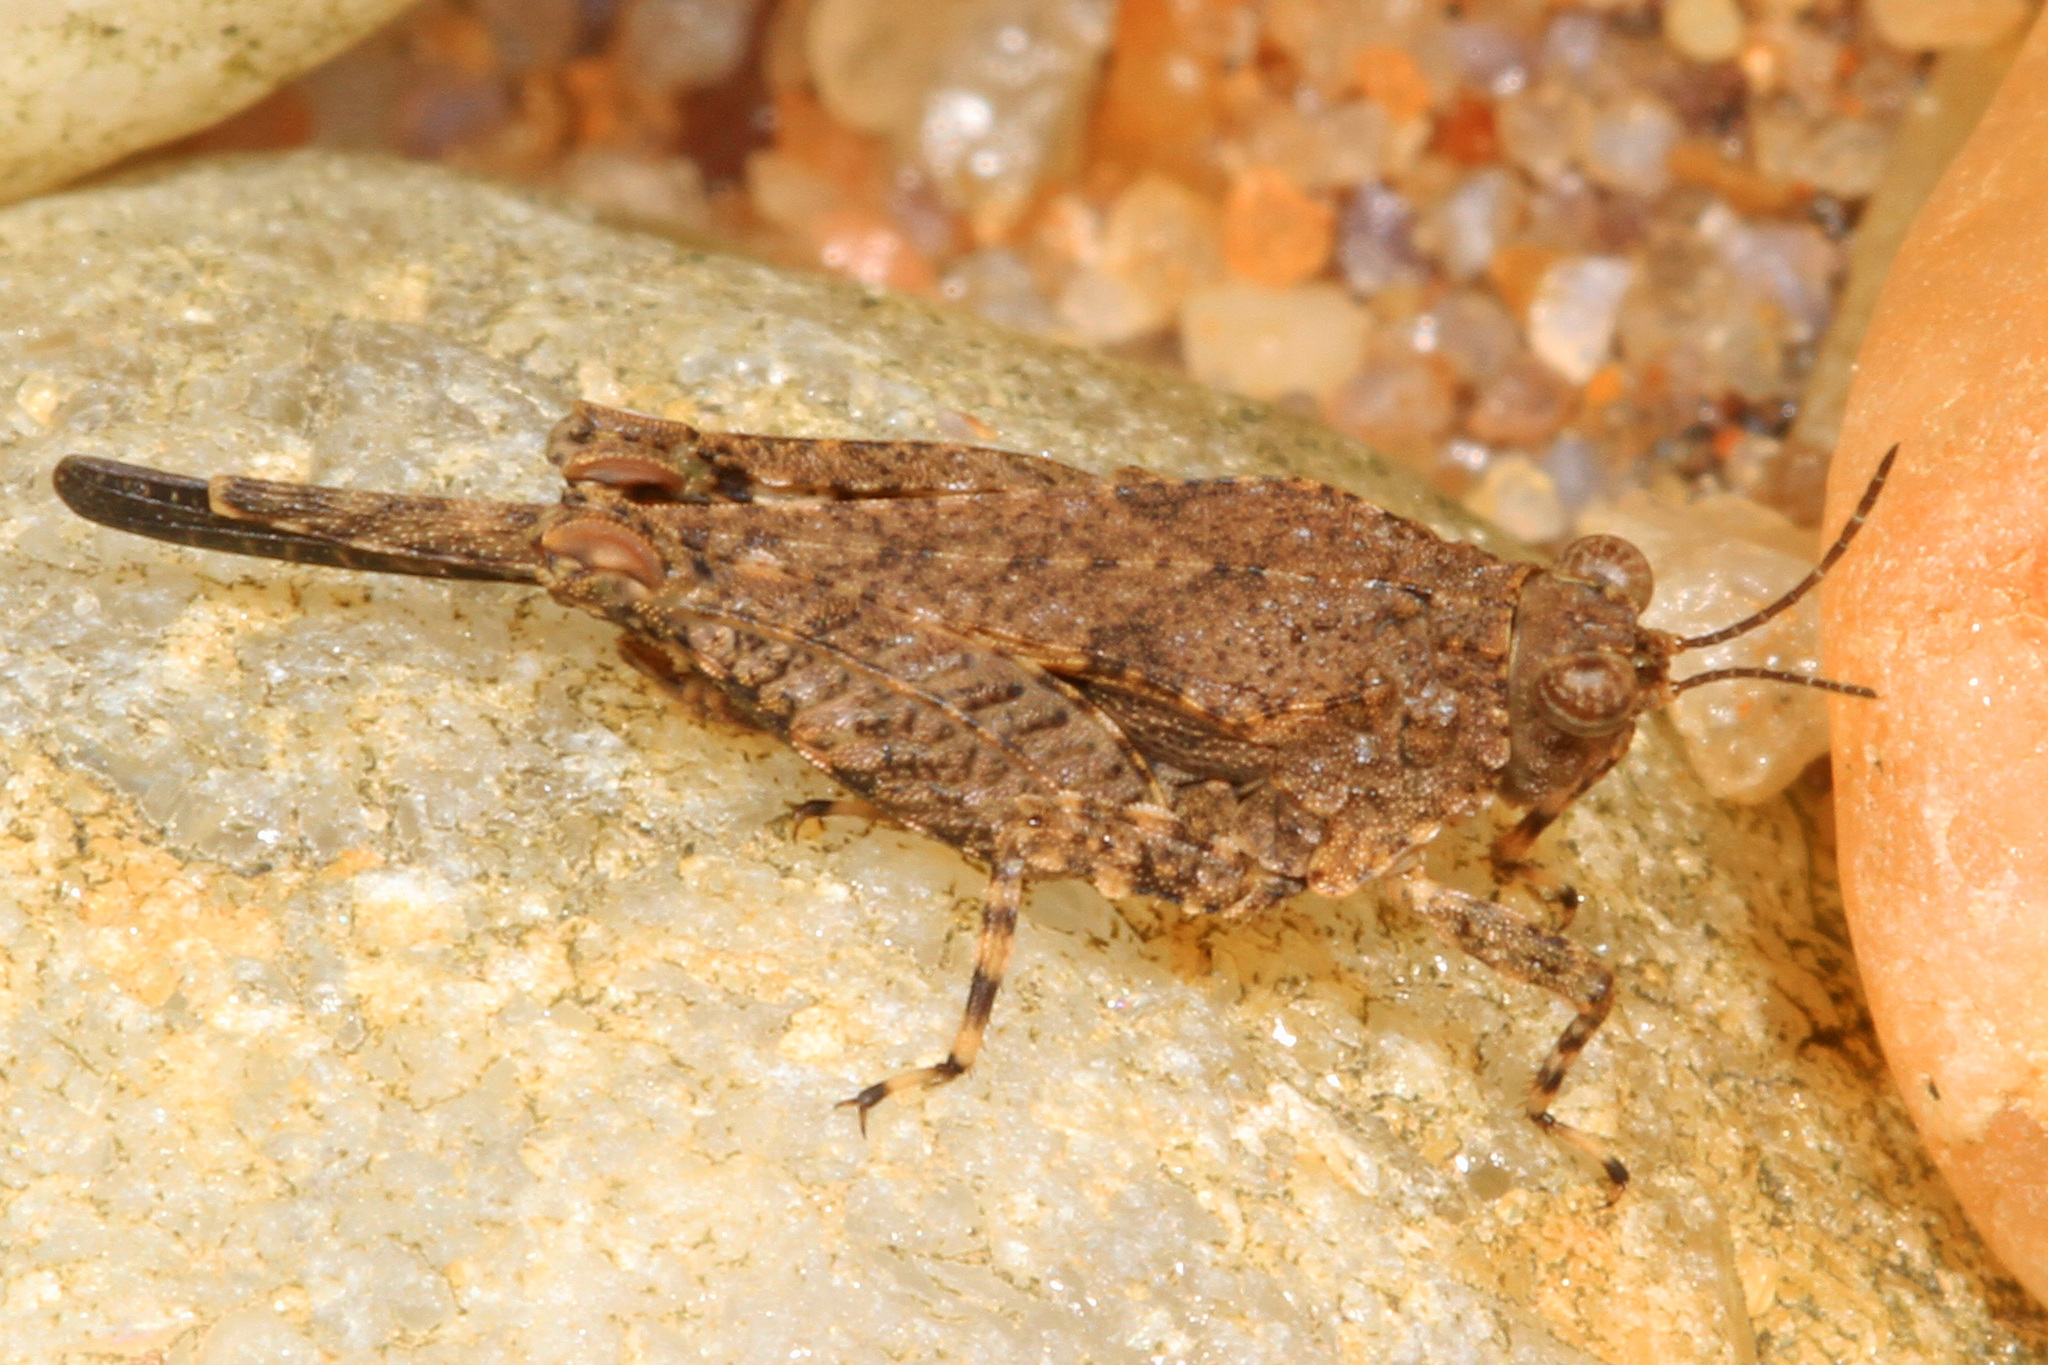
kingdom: Animalia
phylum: Arthropoda
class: Insecta
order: Orthoptera
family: Tetrigidae
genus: Paratettix
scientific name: Paratettix cucullatus
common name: Hooded grouse locust
